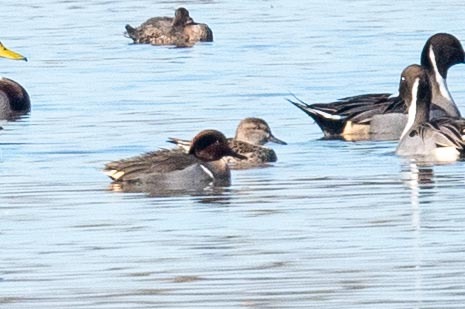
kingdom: Animalia
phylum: Chordata
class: Aves
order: Anseriformes
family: Anatidae
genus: Anas
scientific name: Anas crecca
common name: Eurasian teal
